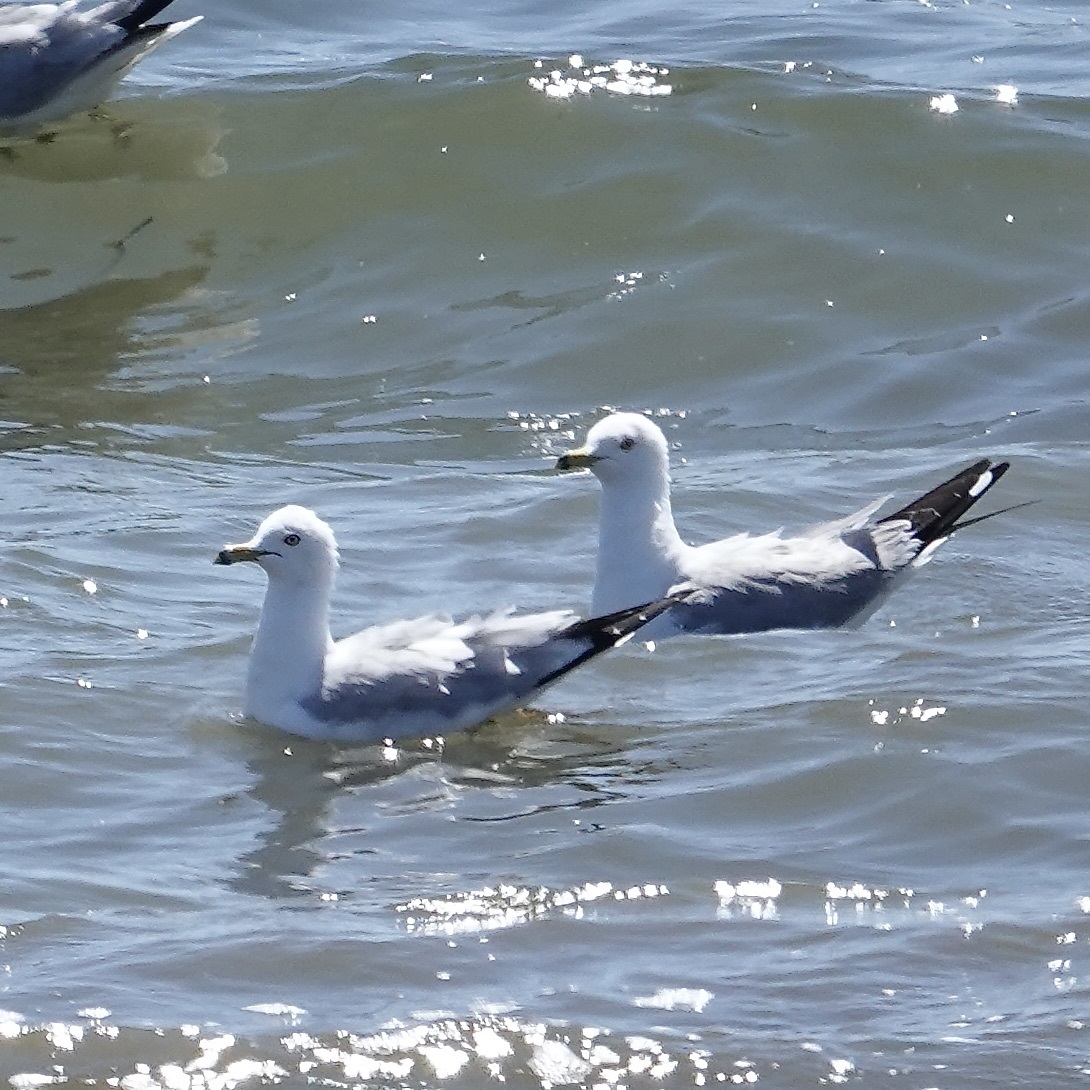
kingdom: Animalia
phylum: Chordata
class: Aves
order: Charadriiformes
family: Laridae
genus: Larus
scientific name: Larus delawarensis
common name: Ring-billed gull
